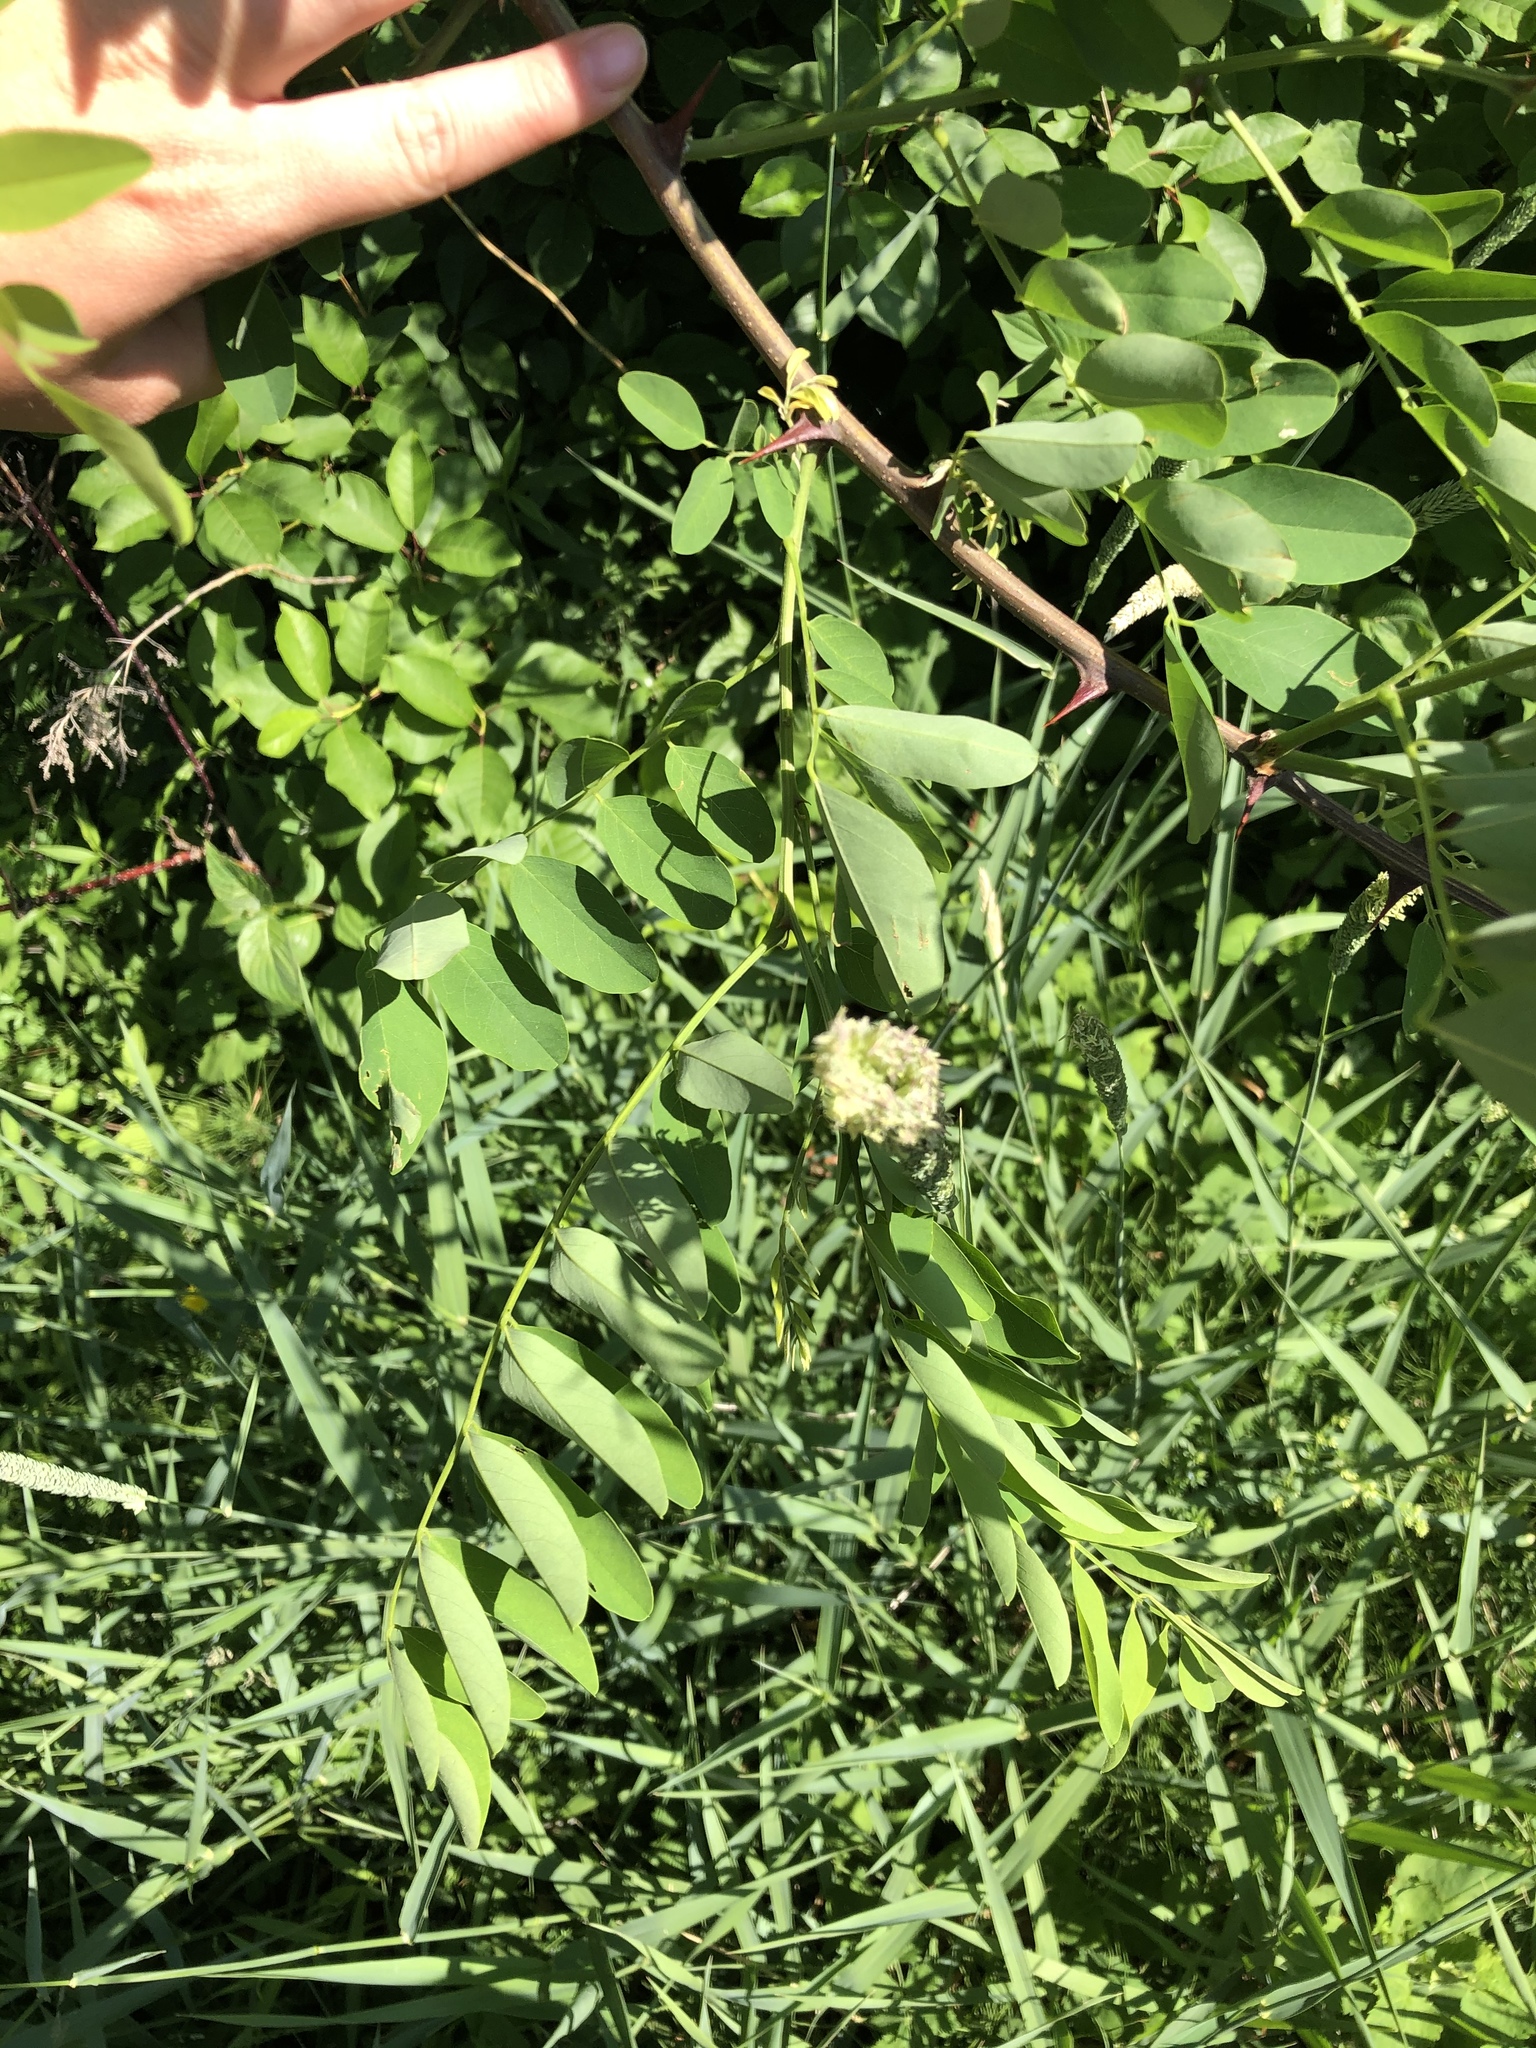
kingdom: Plantae
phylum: Tracheophyta
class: Magnoliopsida
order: Fabales
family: Fabaceae
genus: Robinia
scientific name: Robinia pseudoacacia
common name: Black locust
